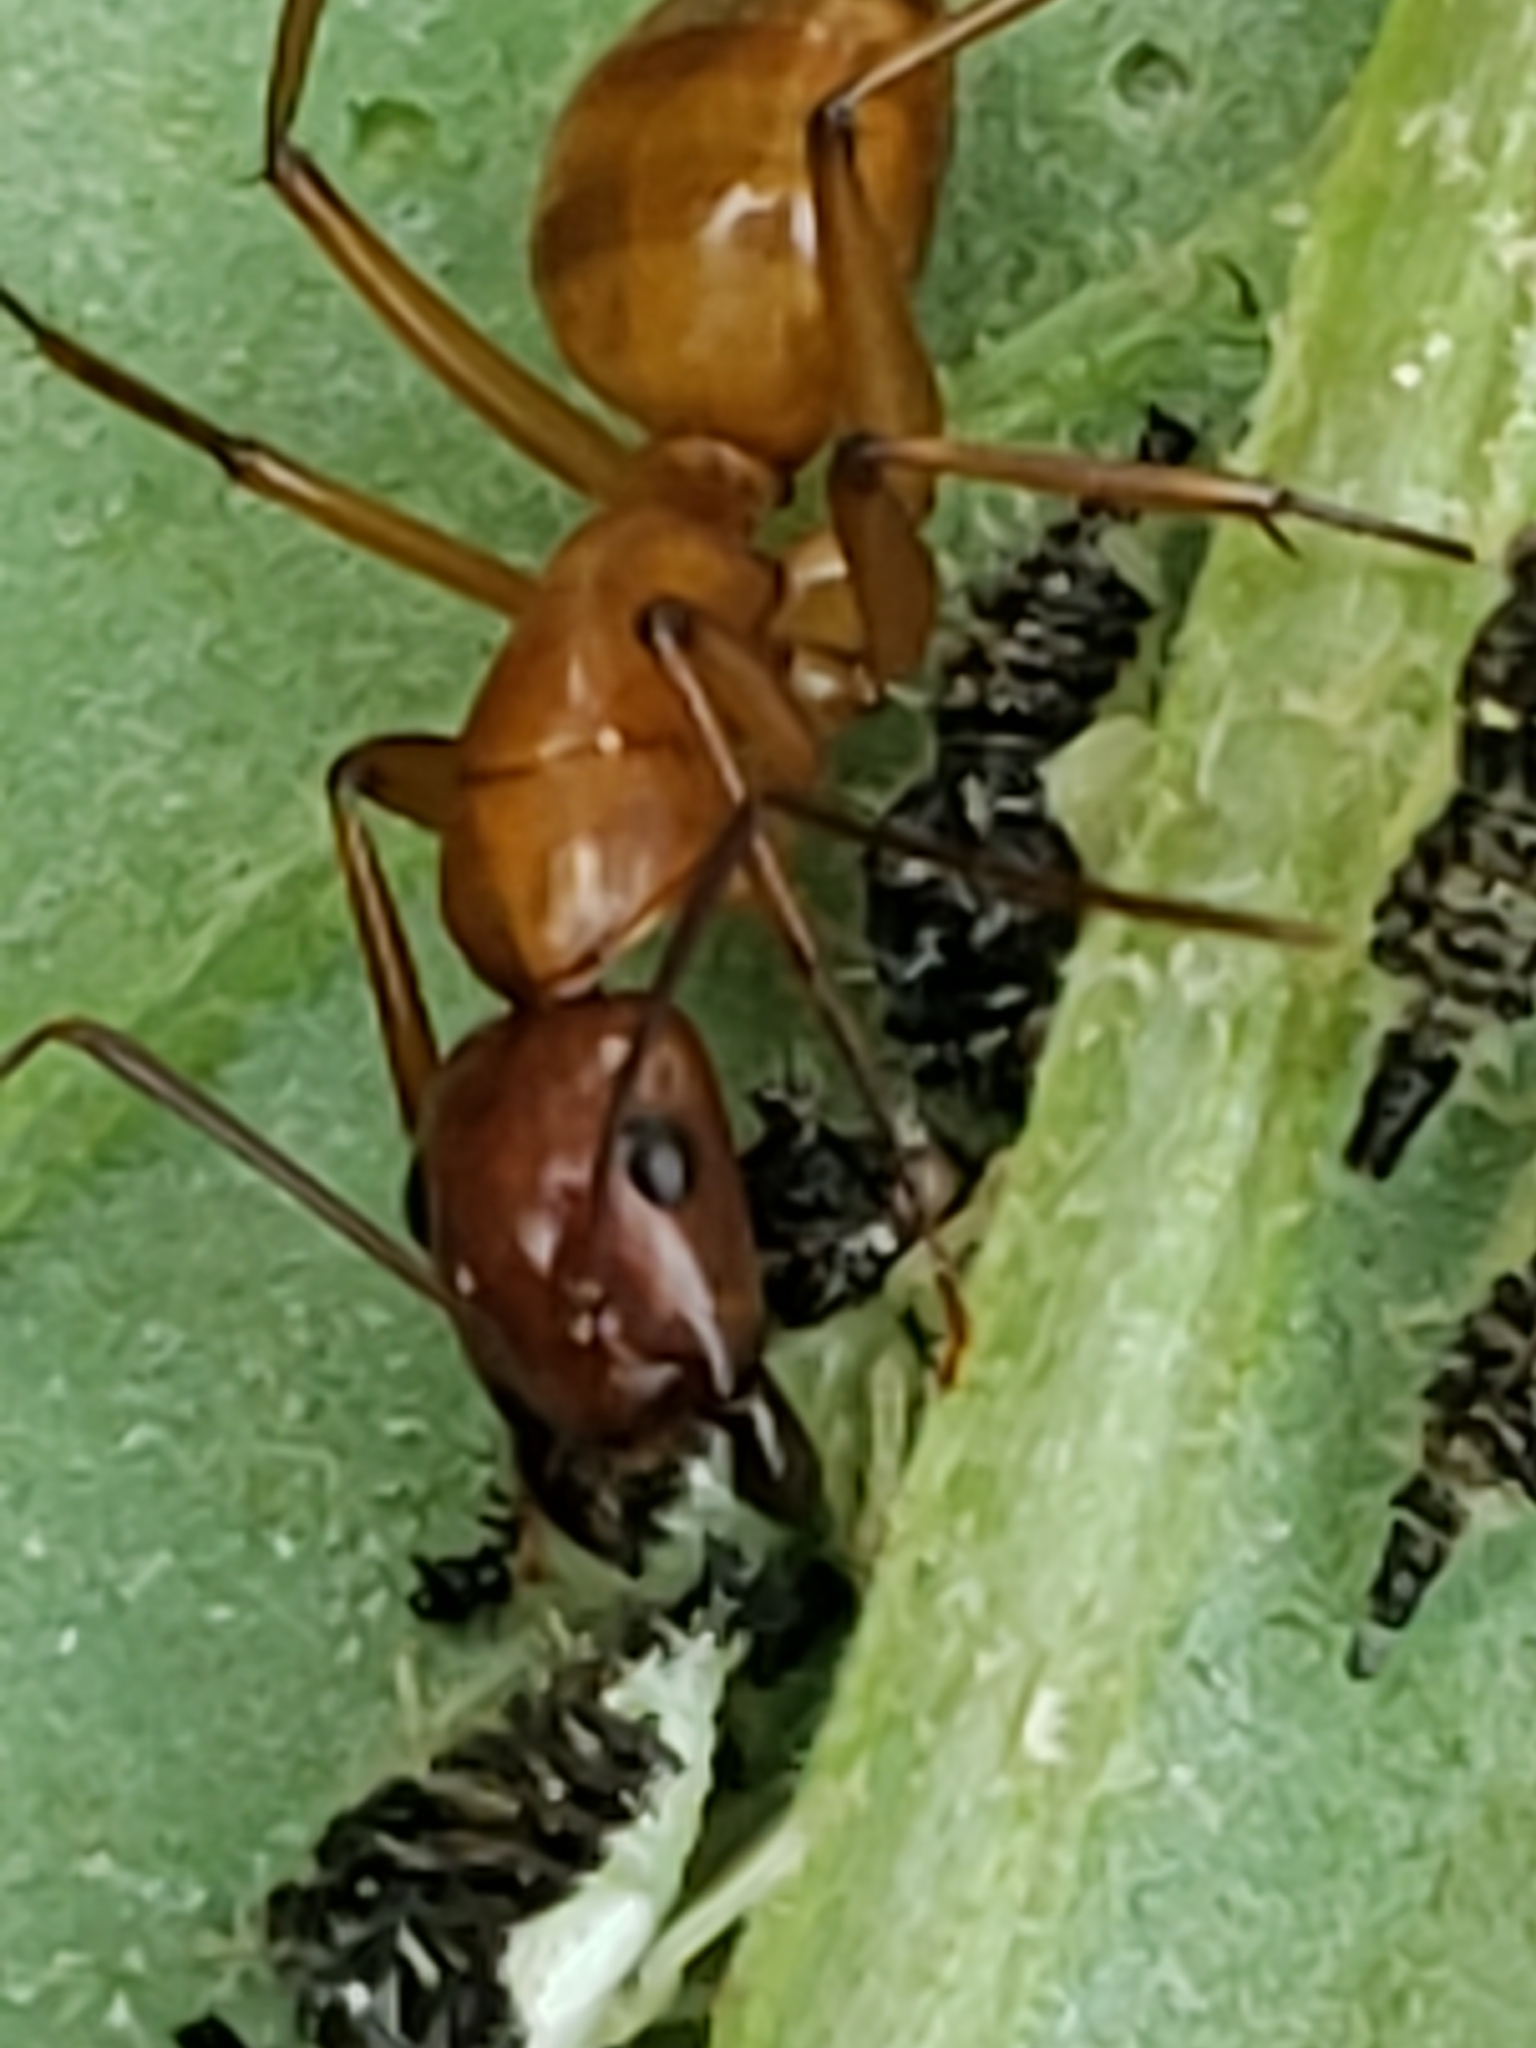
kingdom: Animalia
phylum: Arthropoda
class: Insecta
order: Hymenoptera
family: Formicidae
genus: Camponotus
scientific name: Camponotus castaneus
